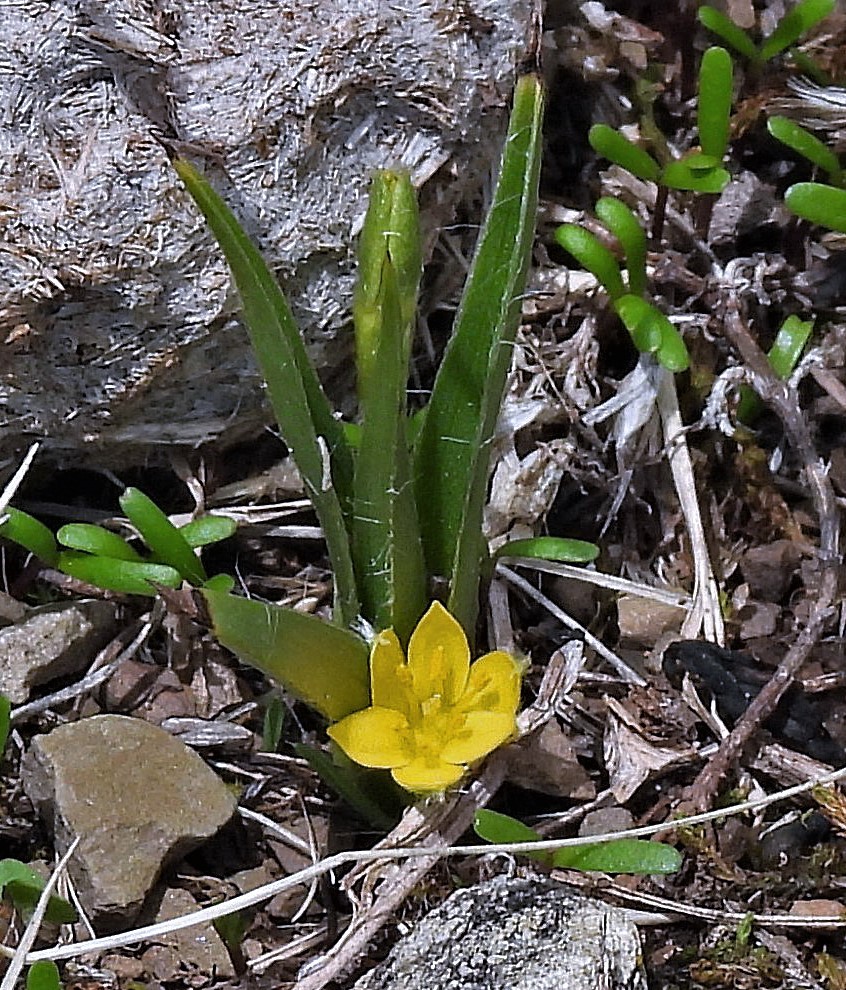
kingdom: Plantae
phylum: Tracheophyta
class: Liliopsida
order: Asparagales
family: Hypoxidaceae
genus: Hypoxis
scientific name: Hypoxis decumbens
